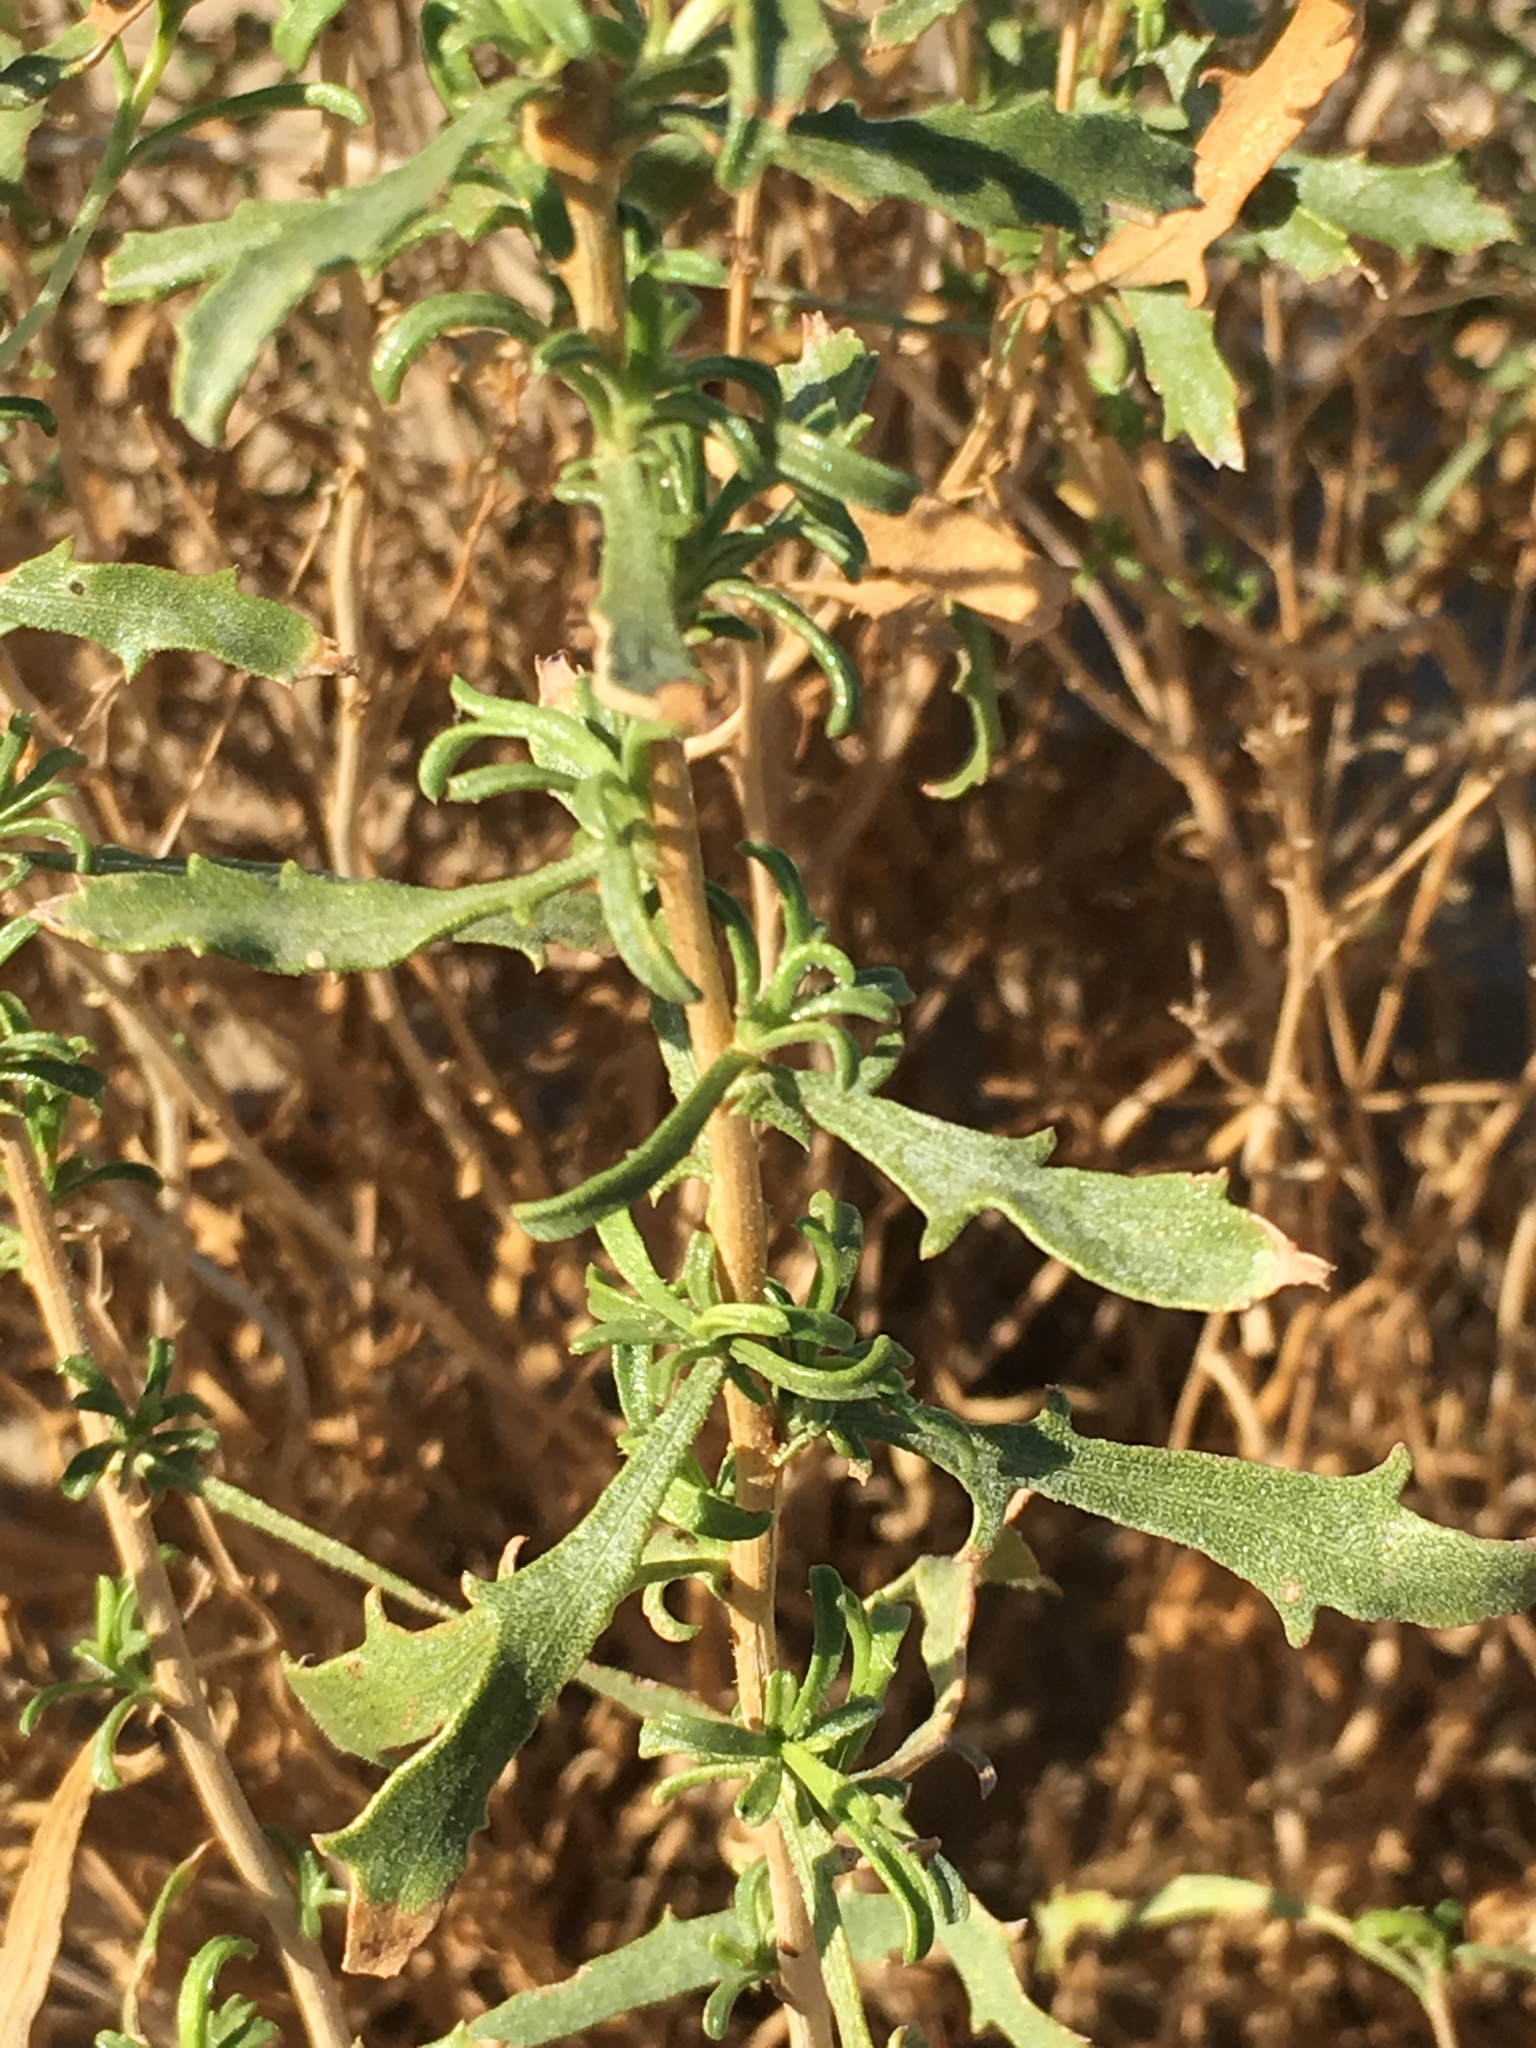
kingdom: Plantae
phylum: Tracheophyta
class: Magnoliopsida
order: Asterales
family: Asteraceae
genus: Isocoma
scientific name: Isocoma acradenia
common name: Alkali jimmyweed
